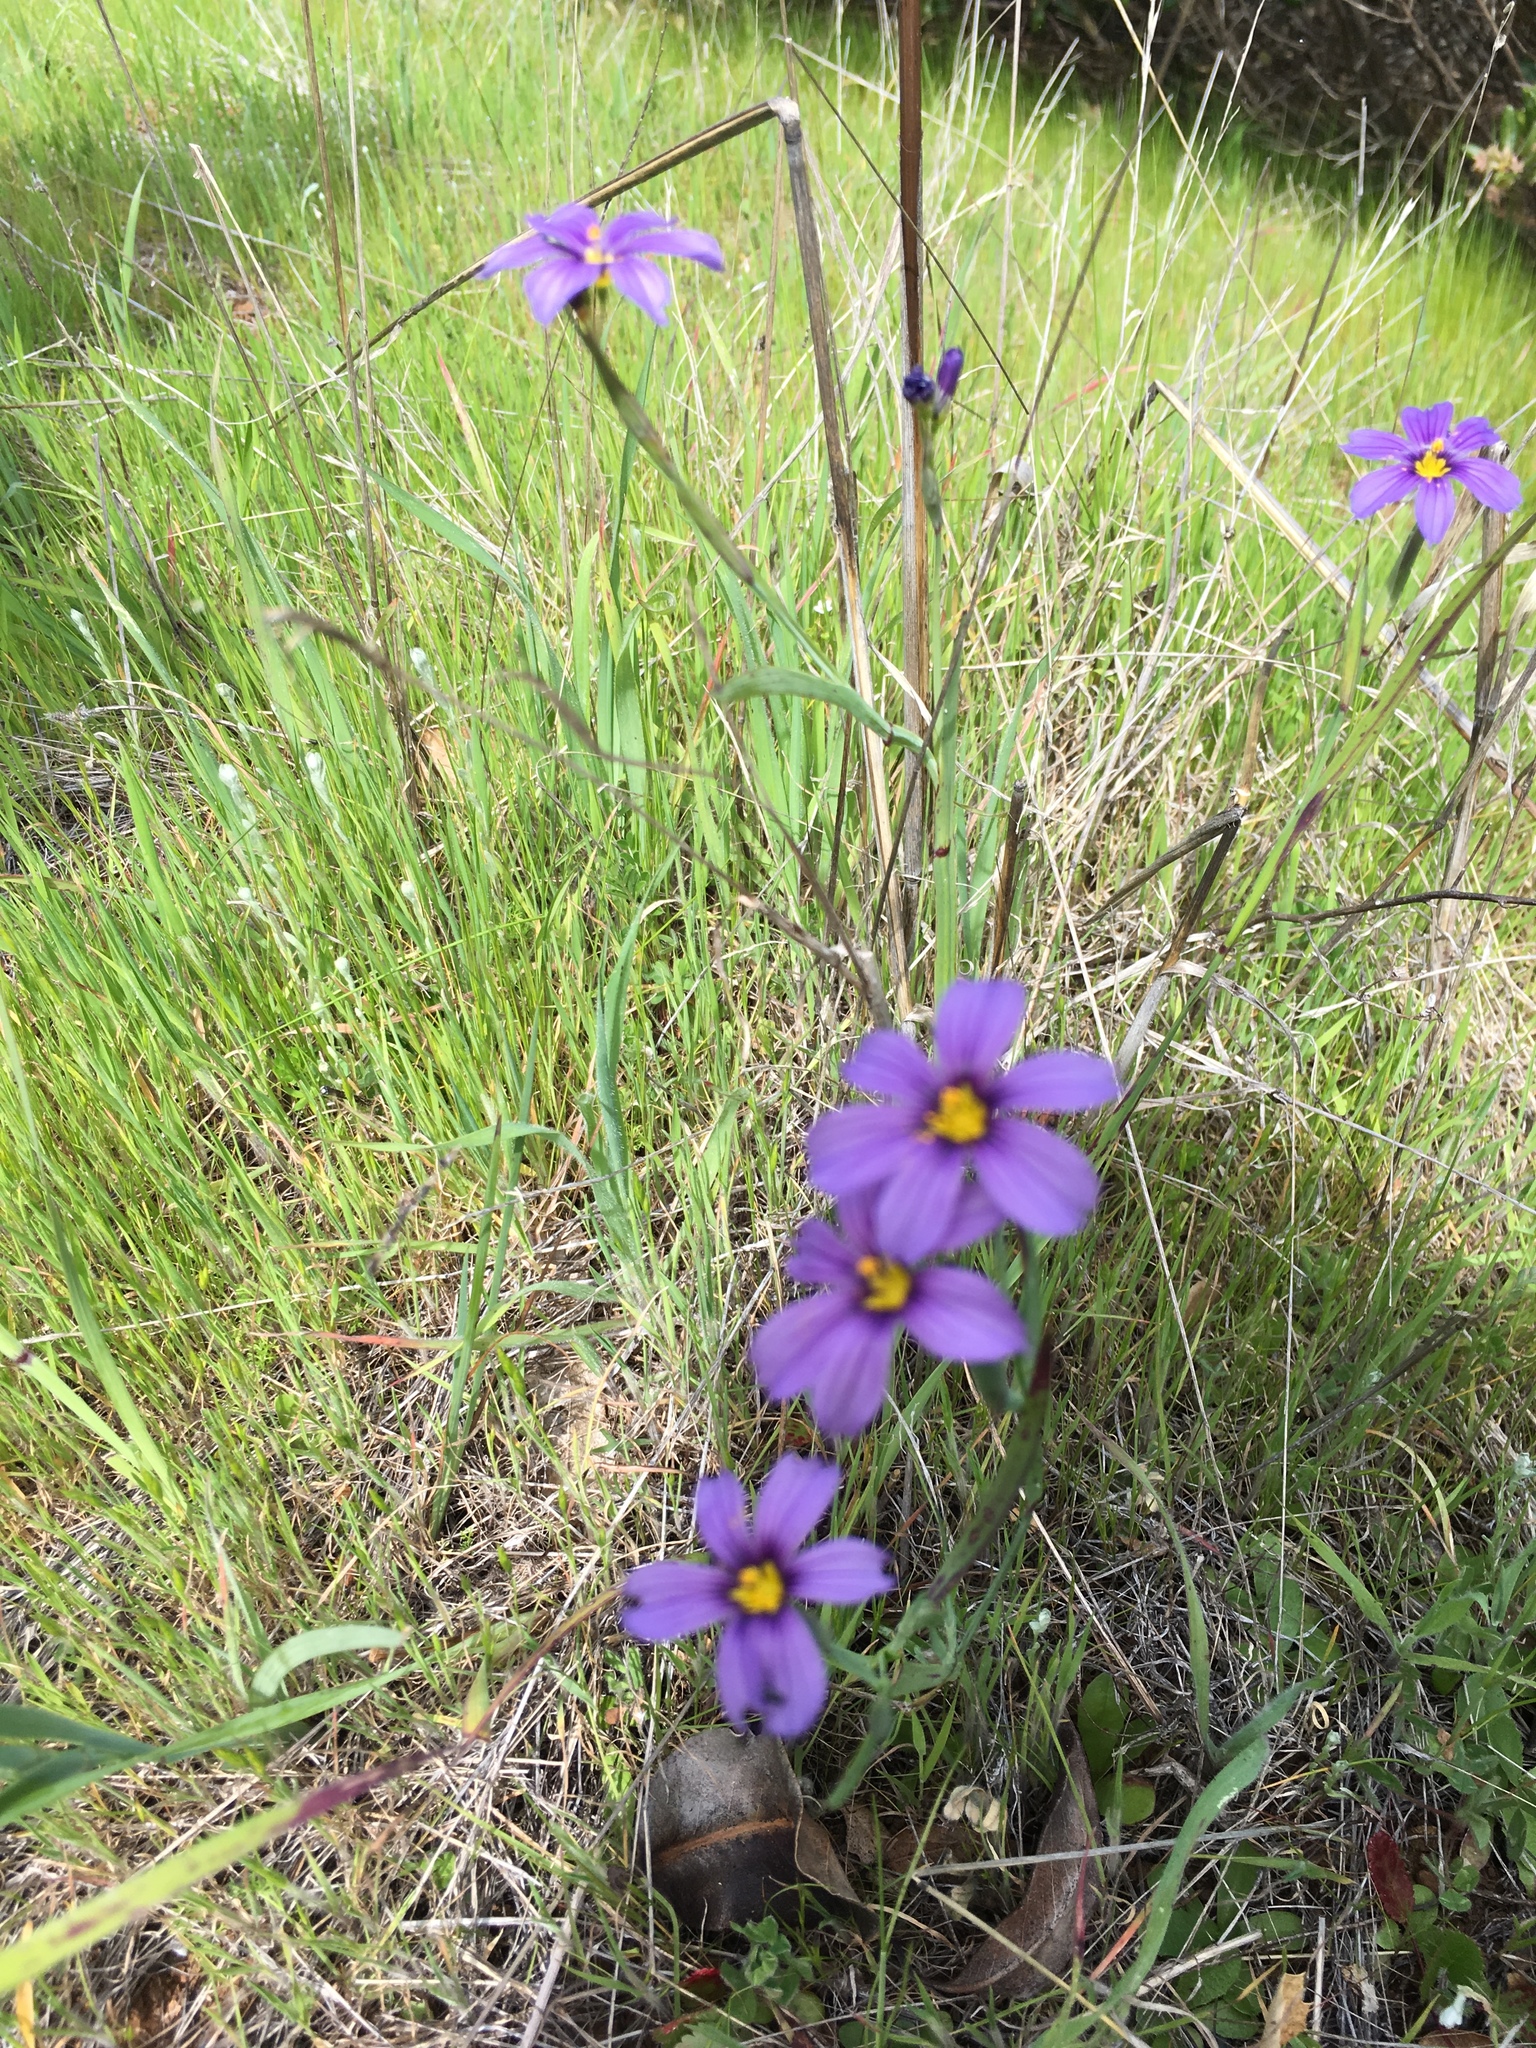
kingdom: Plantae
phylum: Tracheophyta
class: Liliopsida
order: Asparagales
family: Iridaceae
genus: Sisyrinchium
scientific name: Sisyrinchium bellum
